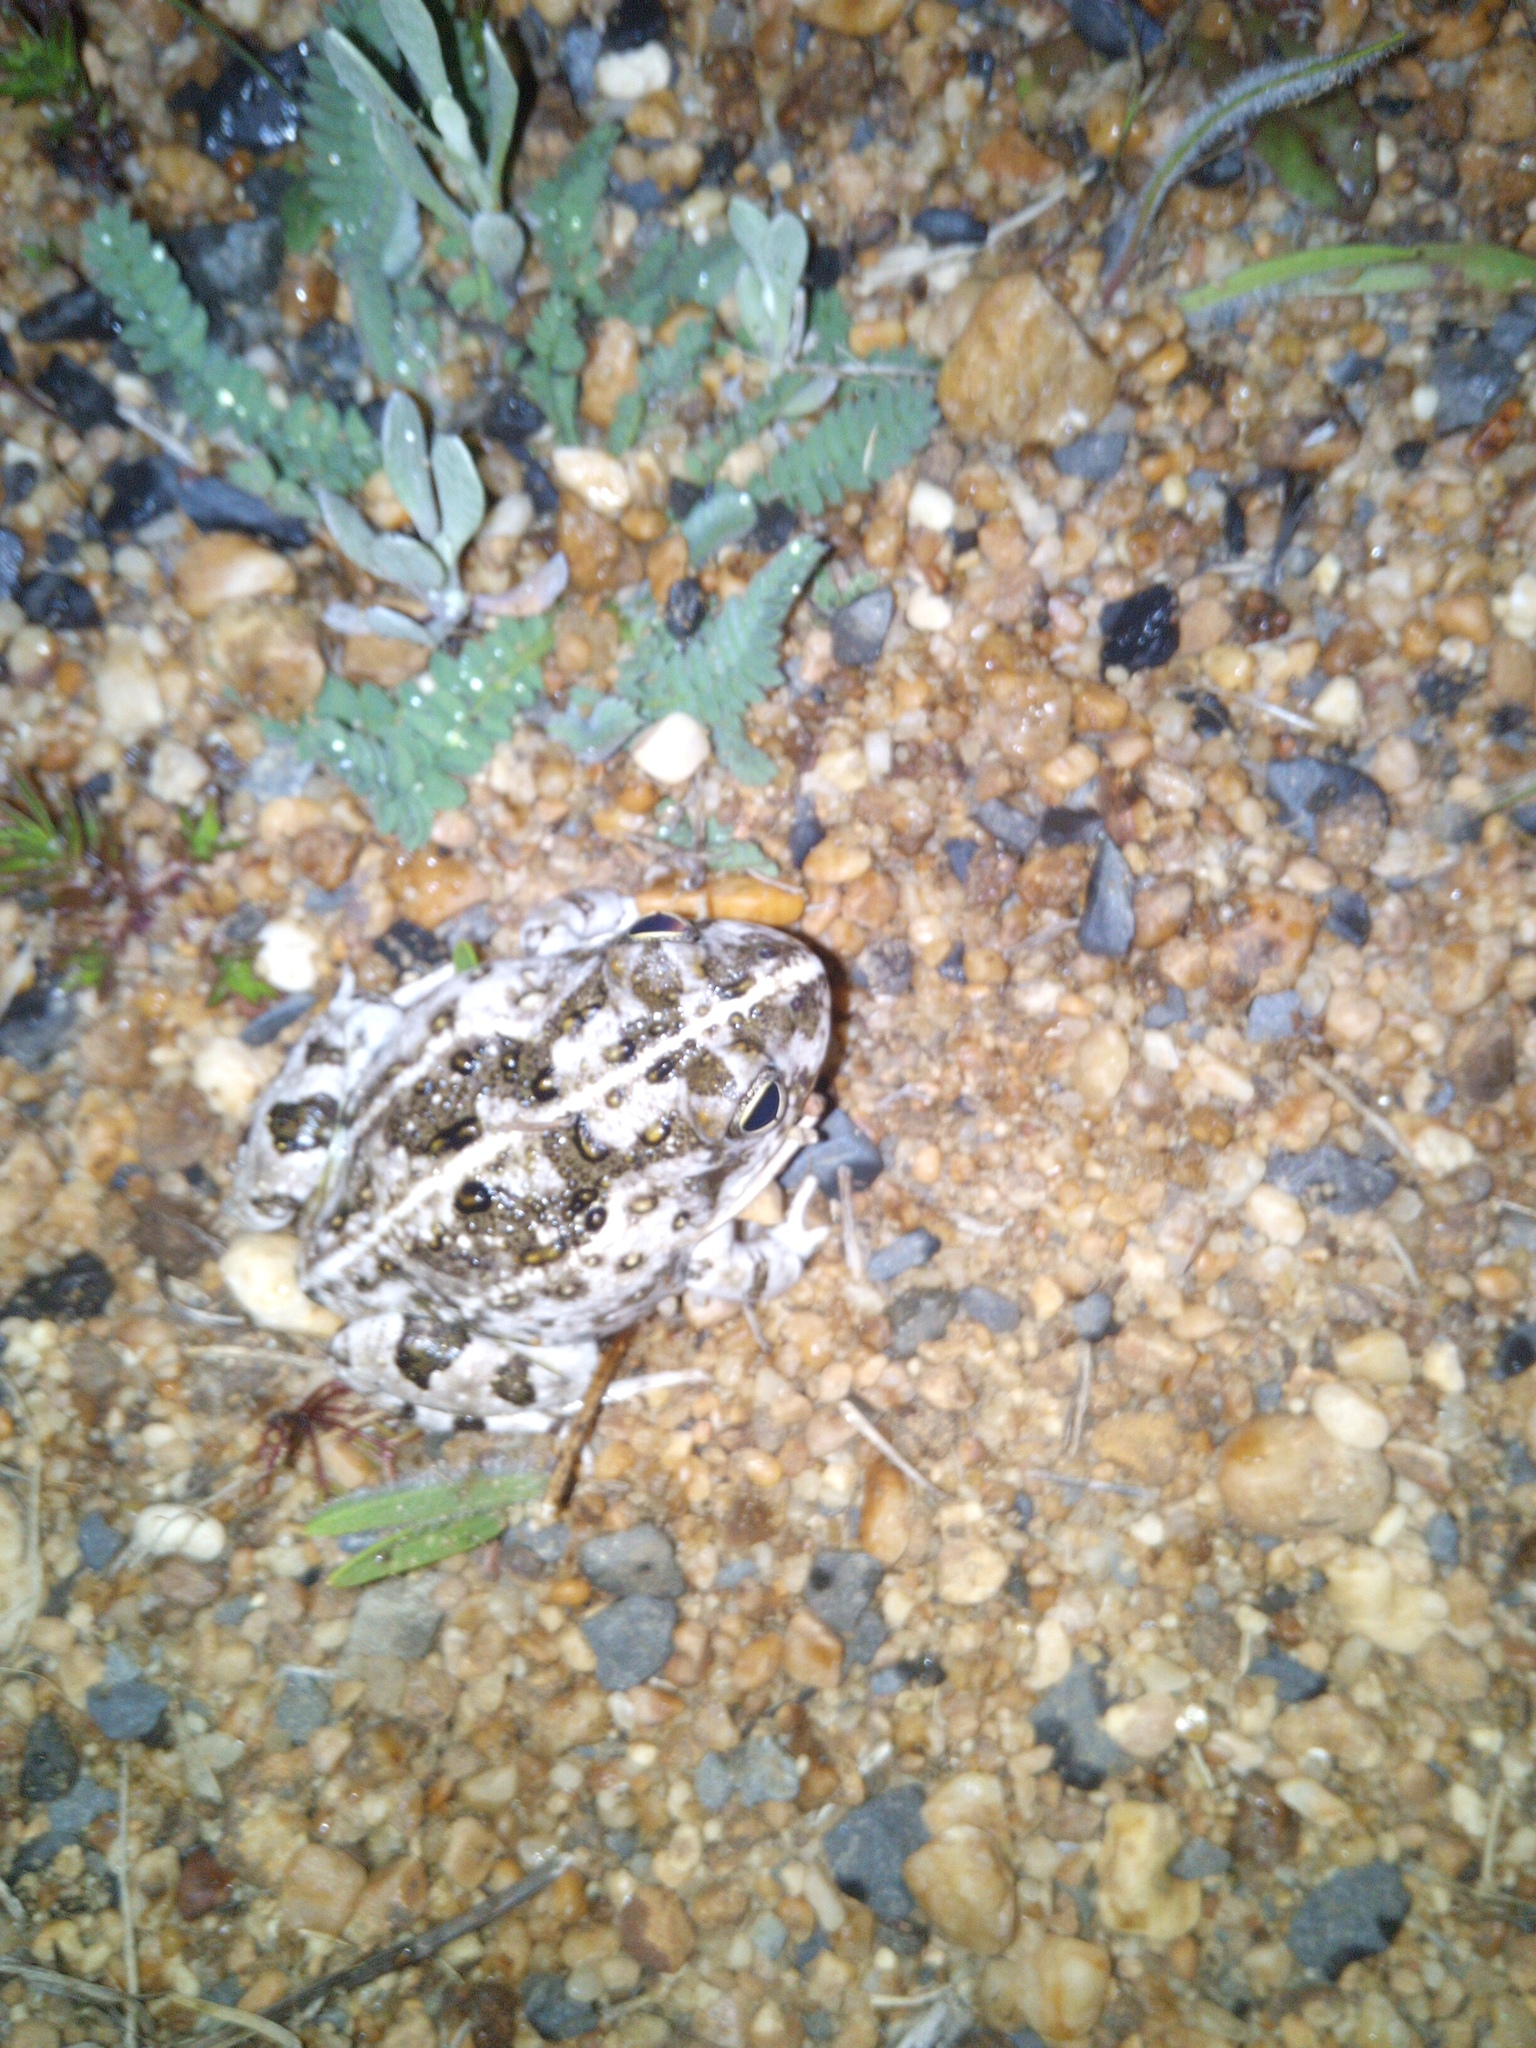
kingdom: Animalia
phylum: Chordata
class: Amphibia
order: Anura
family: Pyxicephalidae
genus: Tomopterna
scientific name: Tomopterna delalandii
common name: Delalande's burrowing bullfrog
